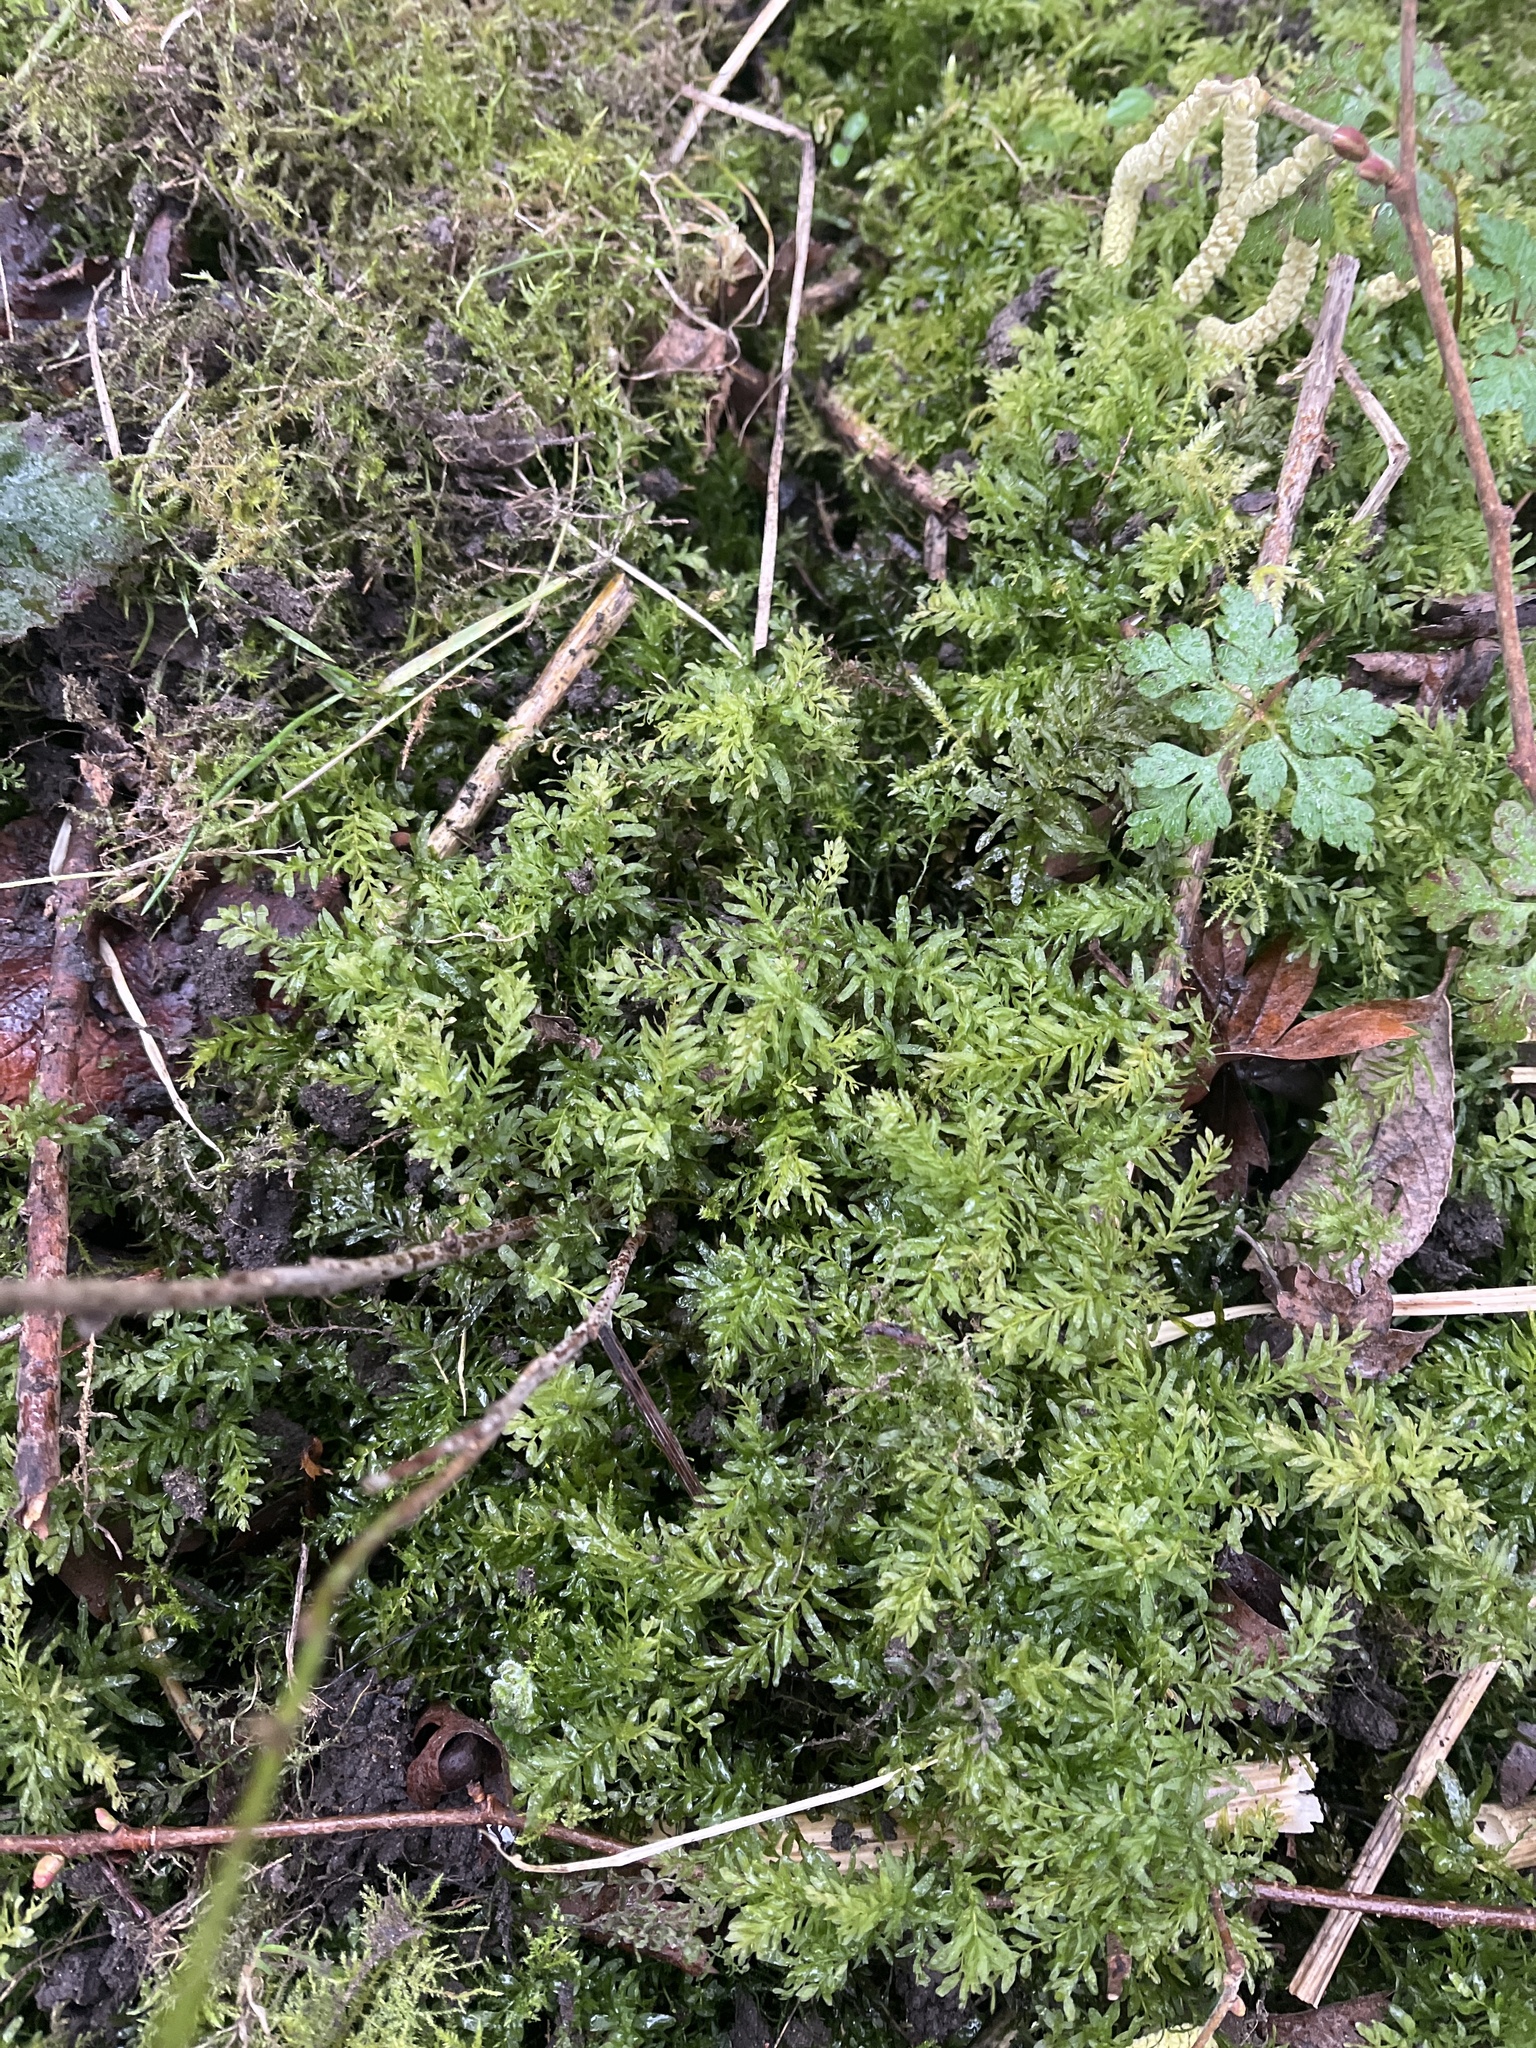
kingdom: Plantae
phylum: Bryophyta
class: Bryopsida
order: Bryales
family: Mniaceae
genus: Plagiomnium
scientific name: Plagiomnium undulatum
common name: Hart's-tongue thyme-moss
